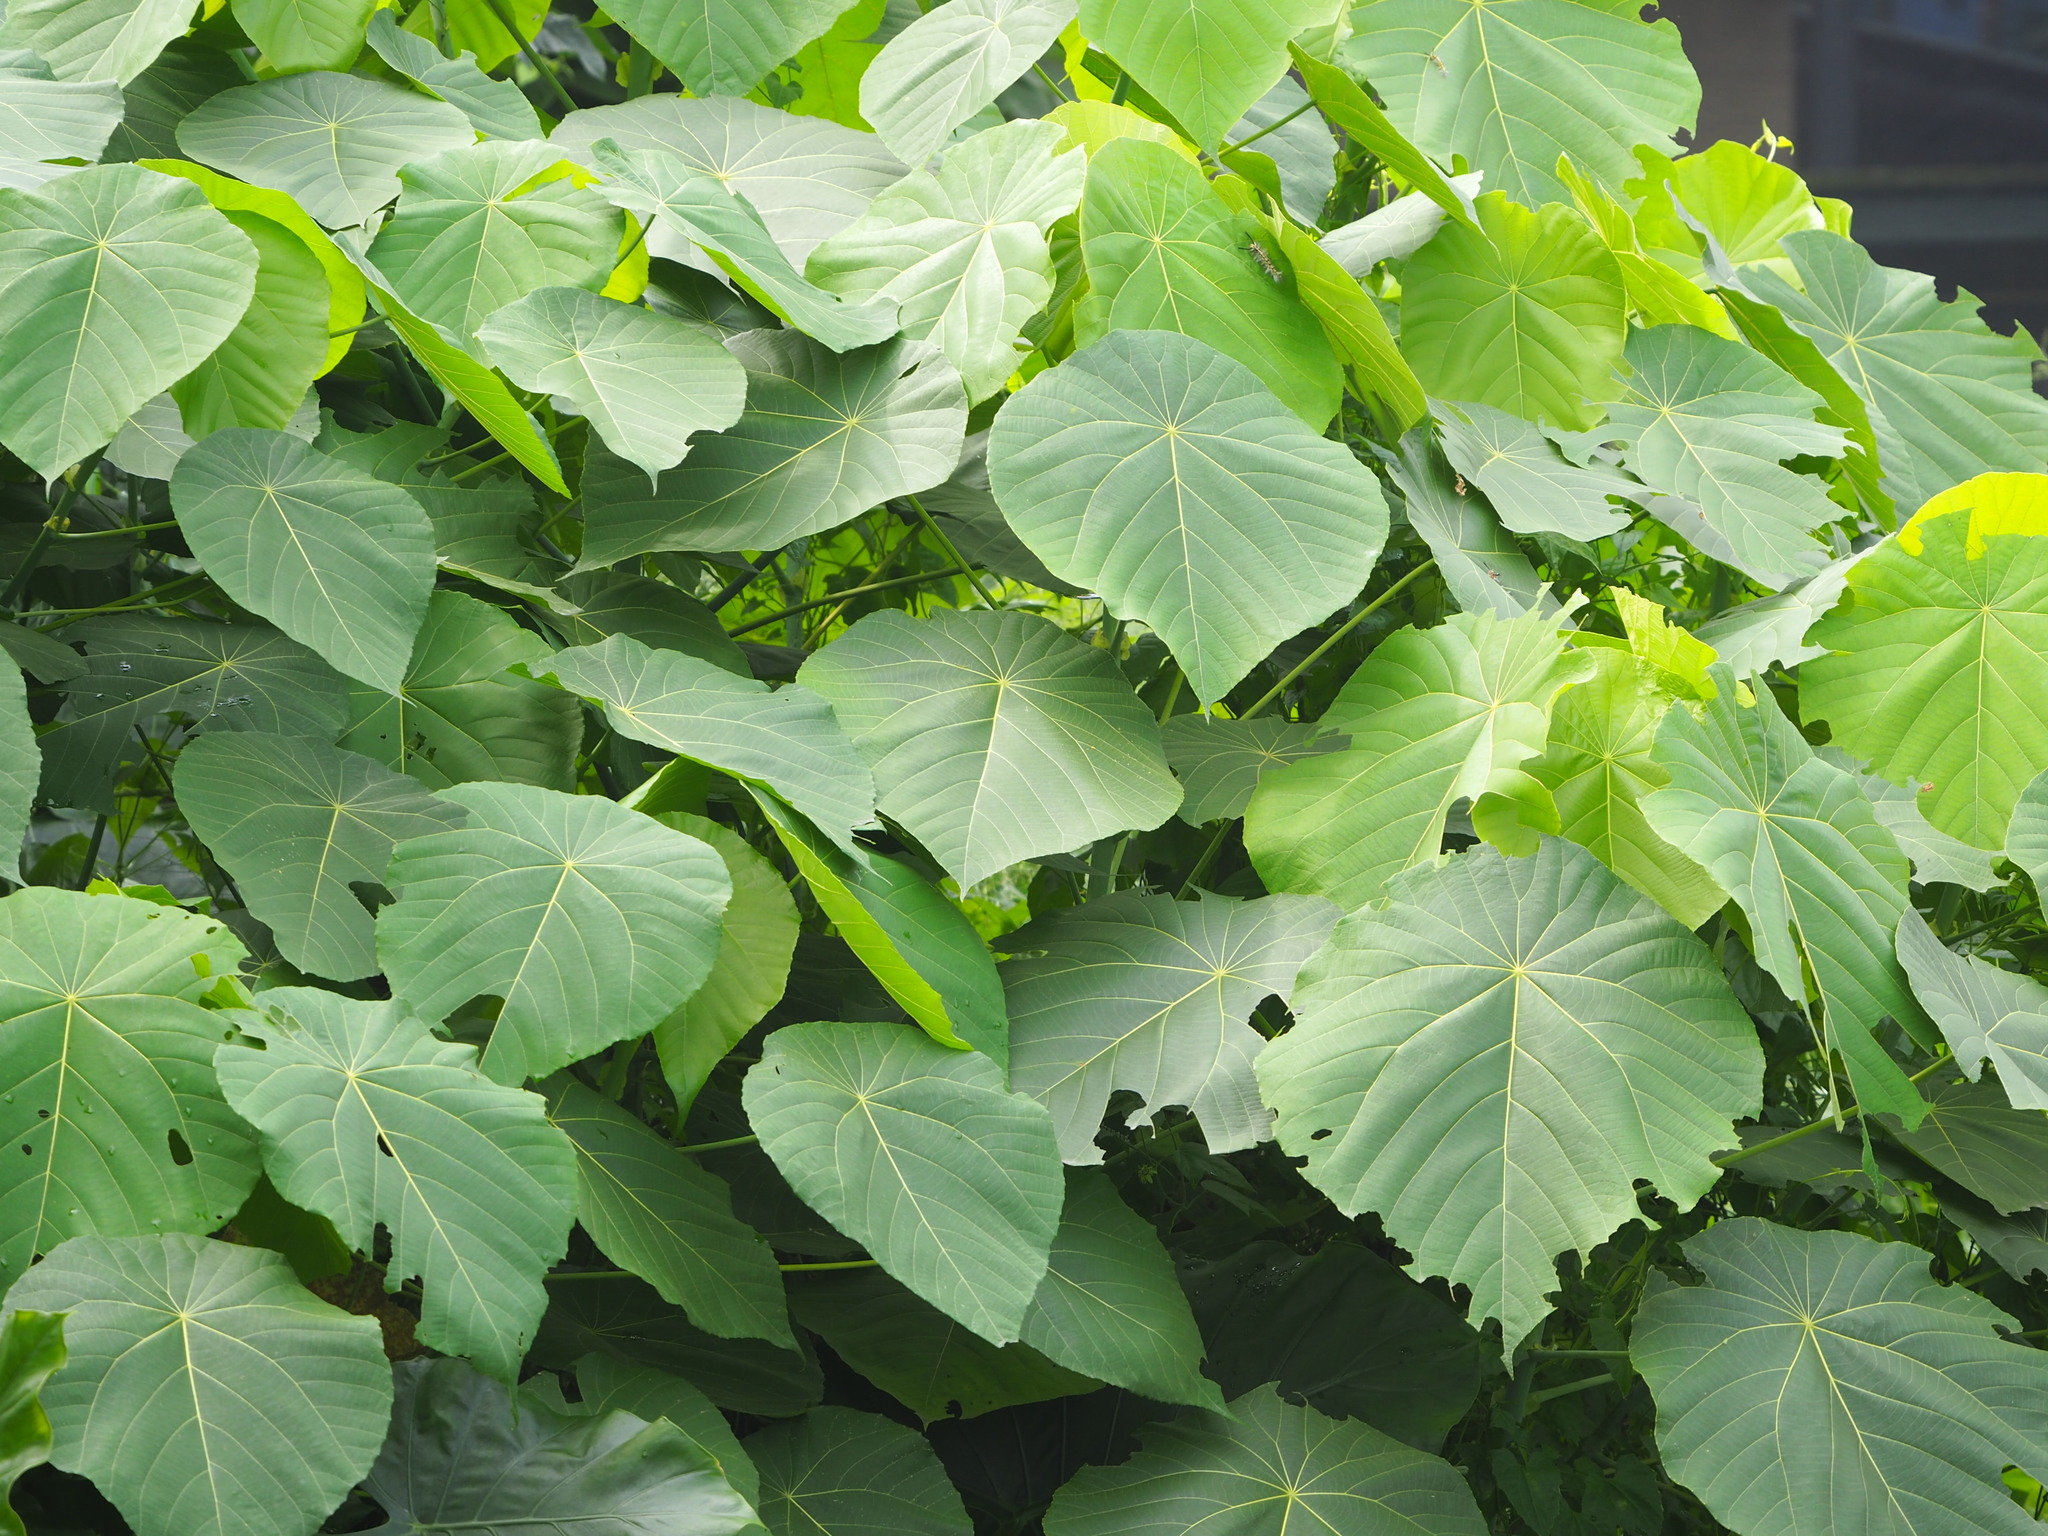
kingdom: Plantae
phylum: Tracheophyta
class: Magnoliopsida
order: Malpighiales
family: Euphorbiaceae
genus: Macaranga
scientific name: Macaranga tanarius
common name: Parasol leaf tree
